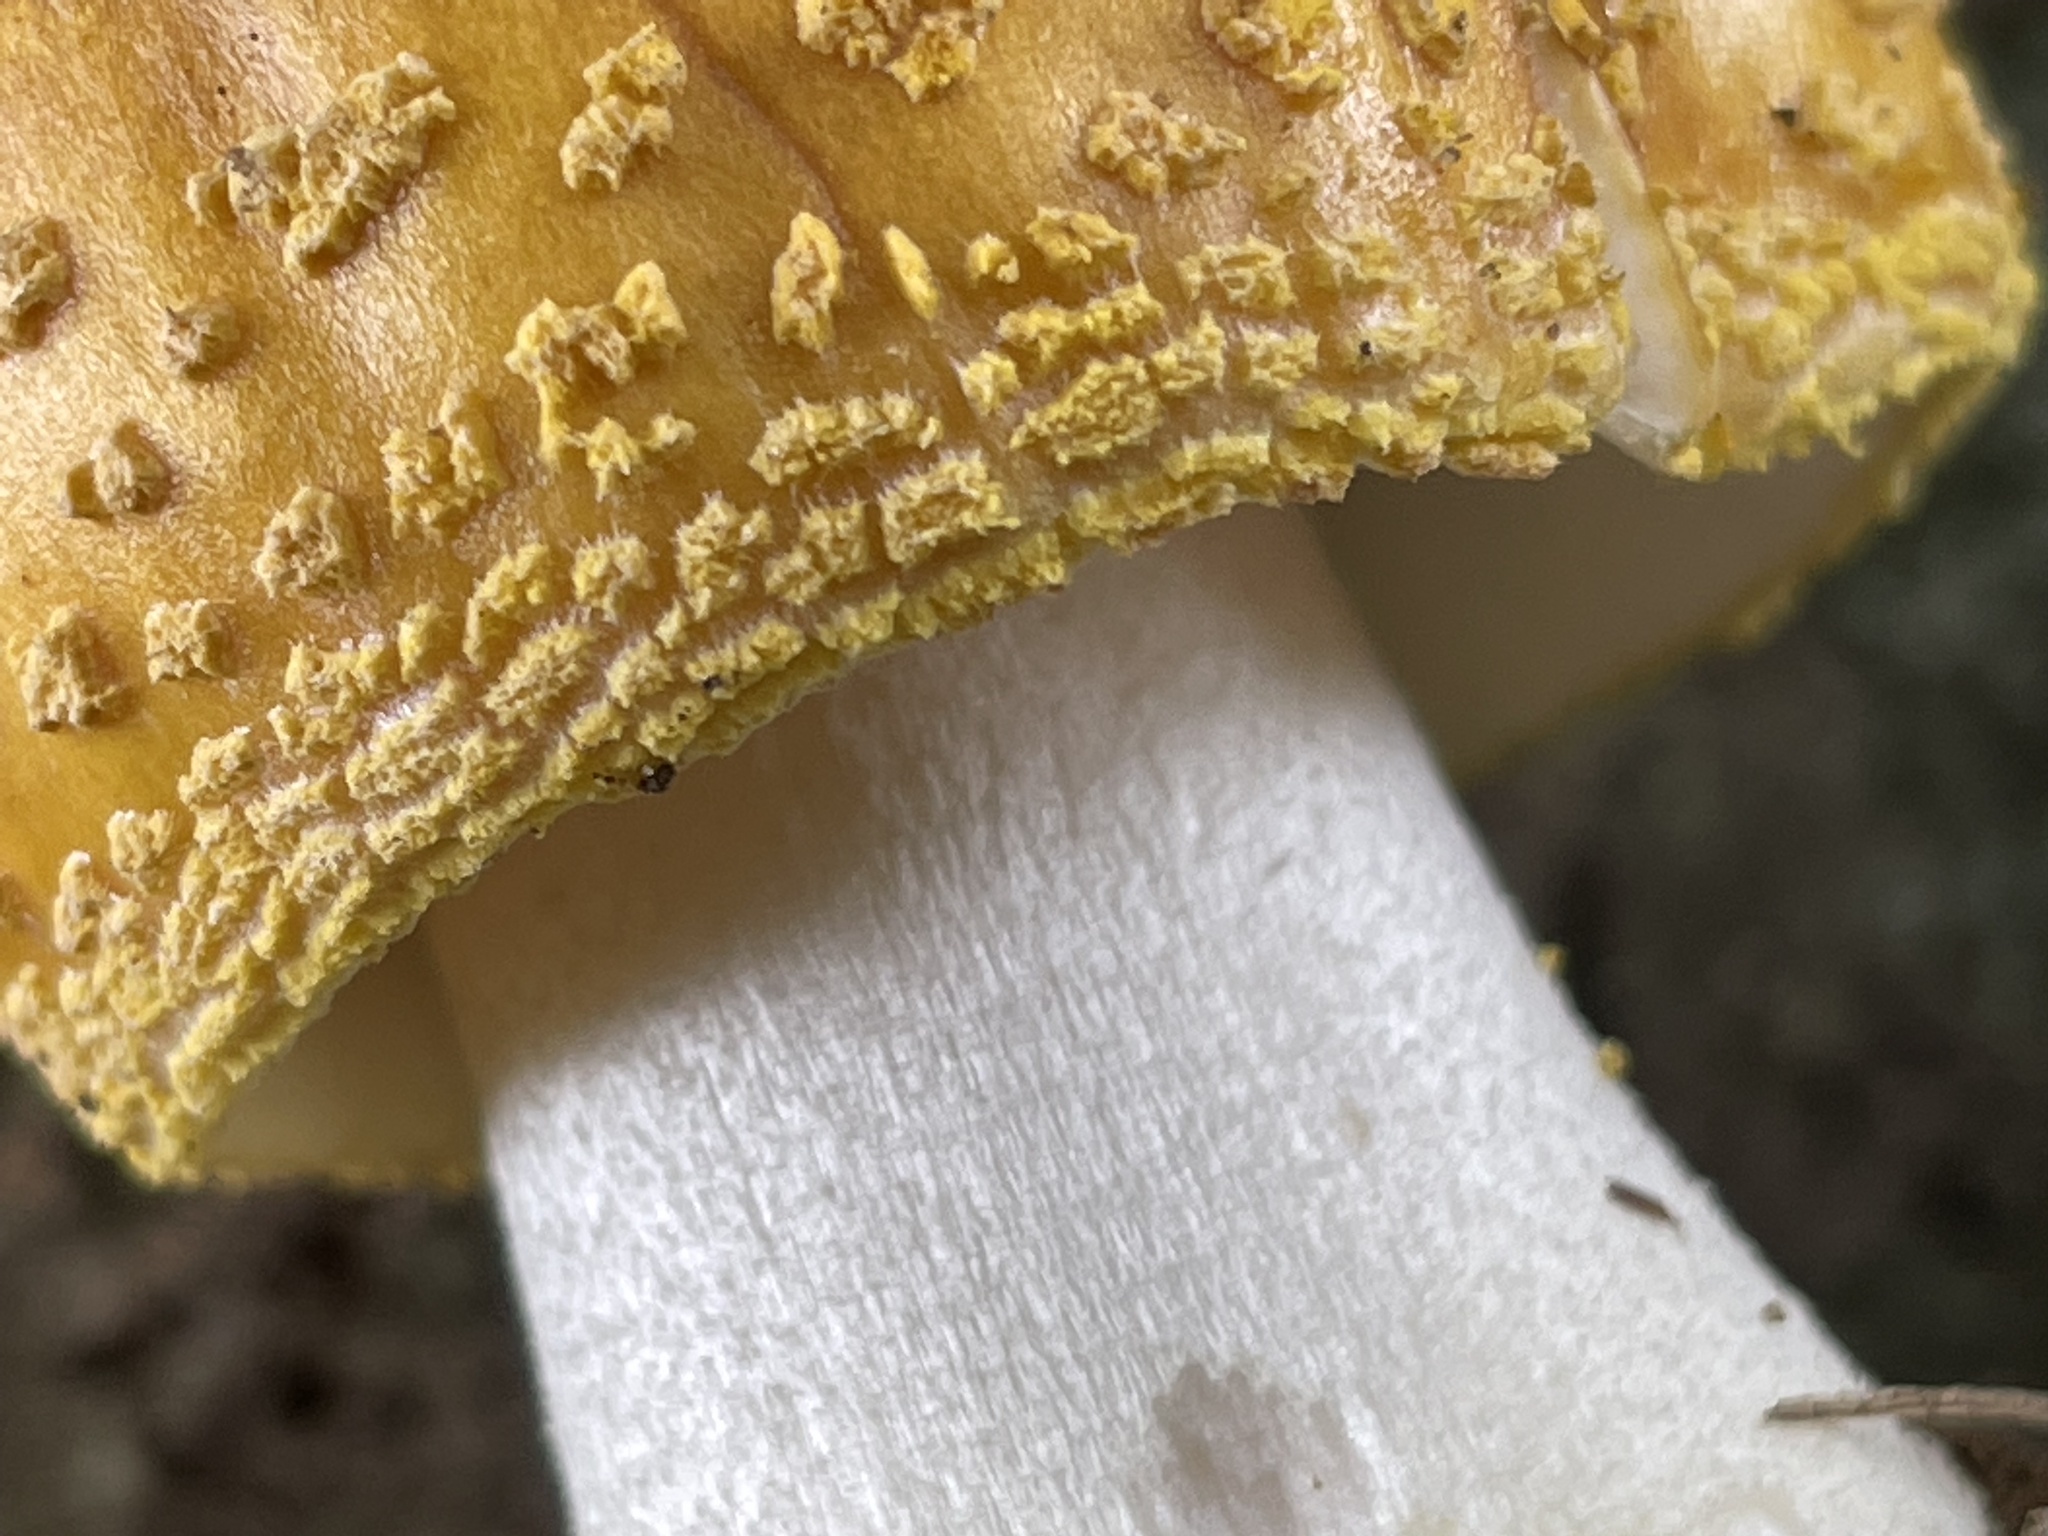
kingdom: Fungi
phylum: Basidiomycota
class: Agaricomycetes
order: Agaricales
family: Amanitaceae
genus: Amanita
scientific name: Amanita flavorubens
